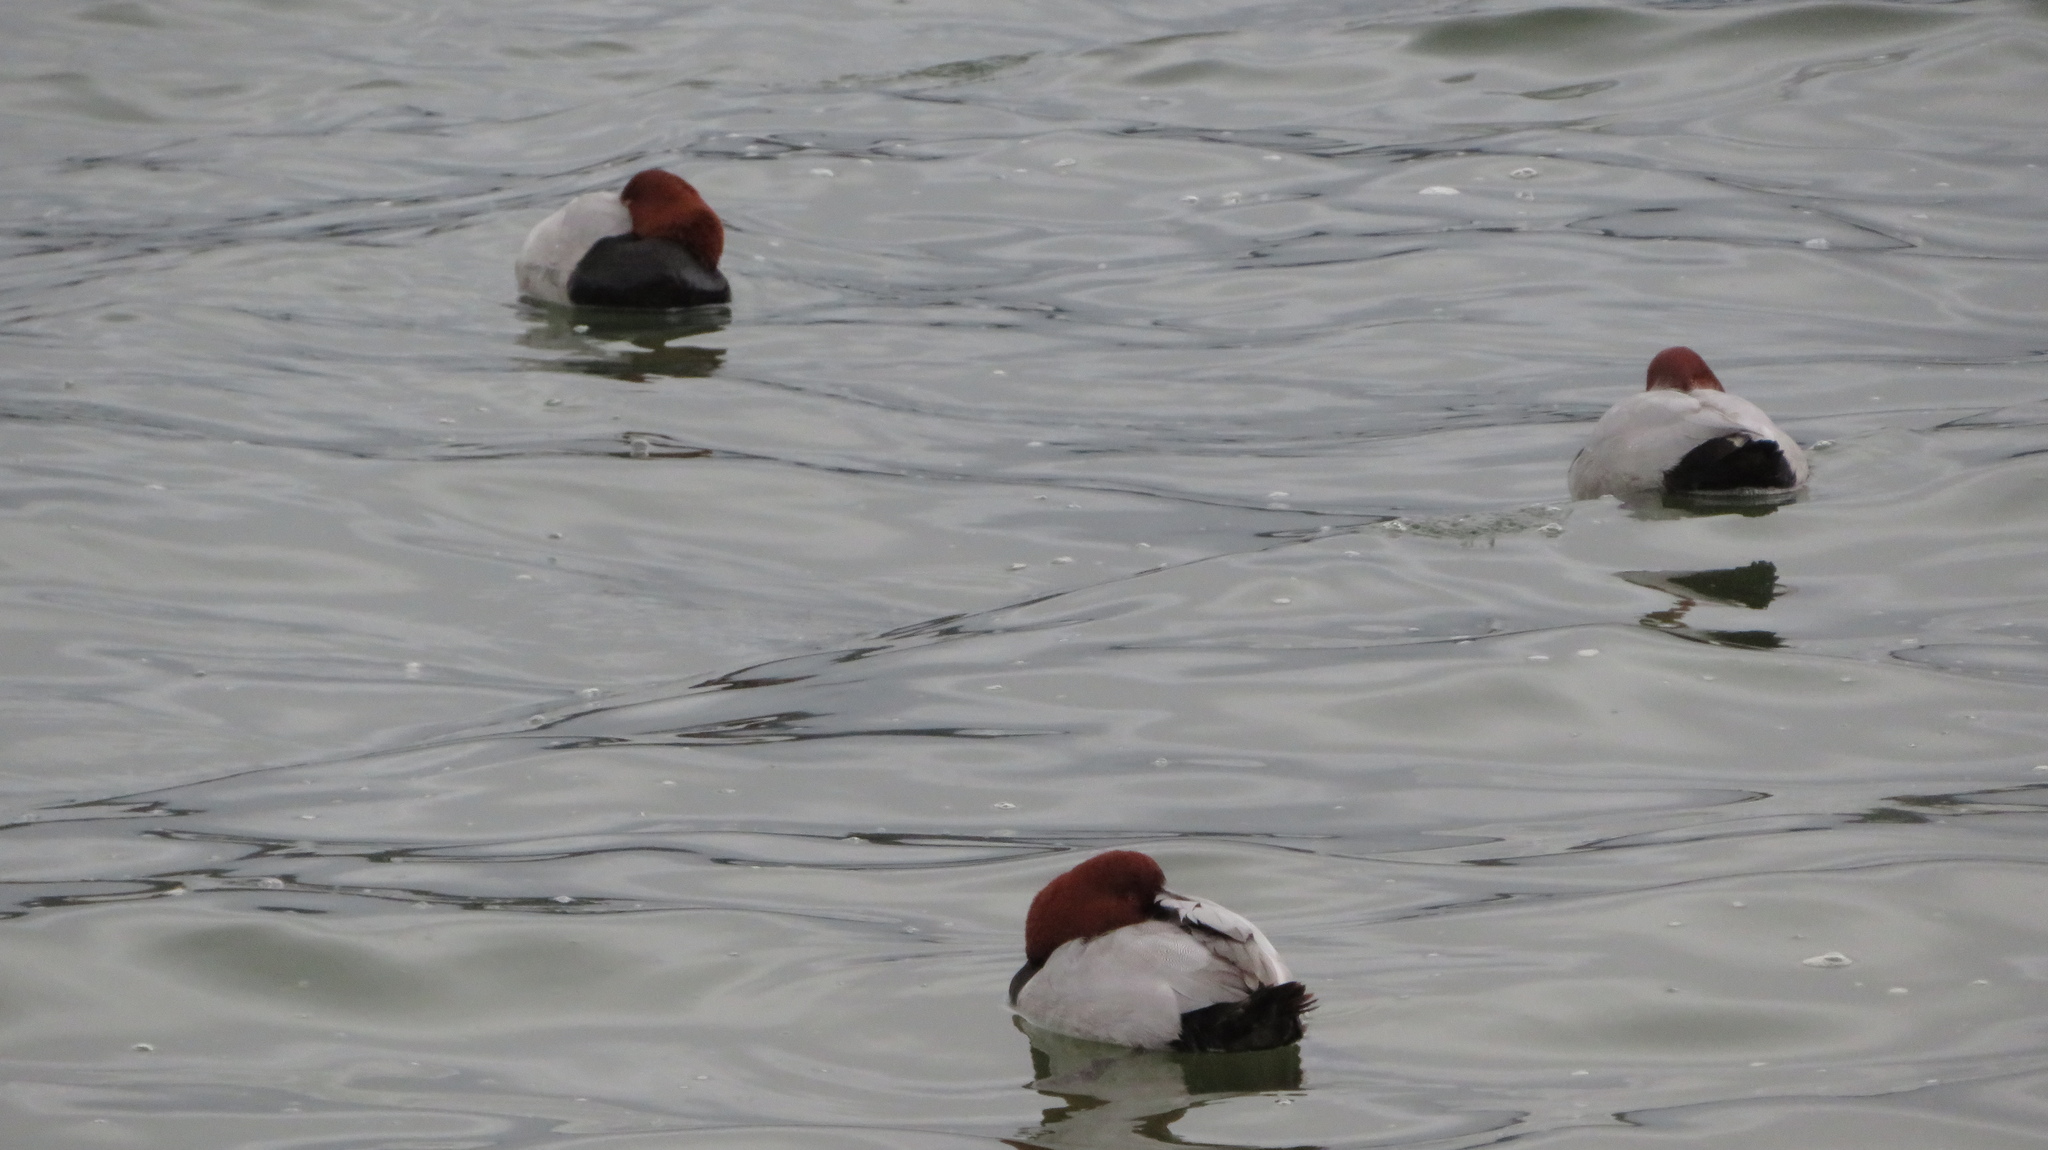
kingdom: Animalia
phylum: Chordata
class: Aves
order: Anseriformes
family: Anatidae
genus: Aythya
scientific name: Aythya ferina
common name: Common pochard
